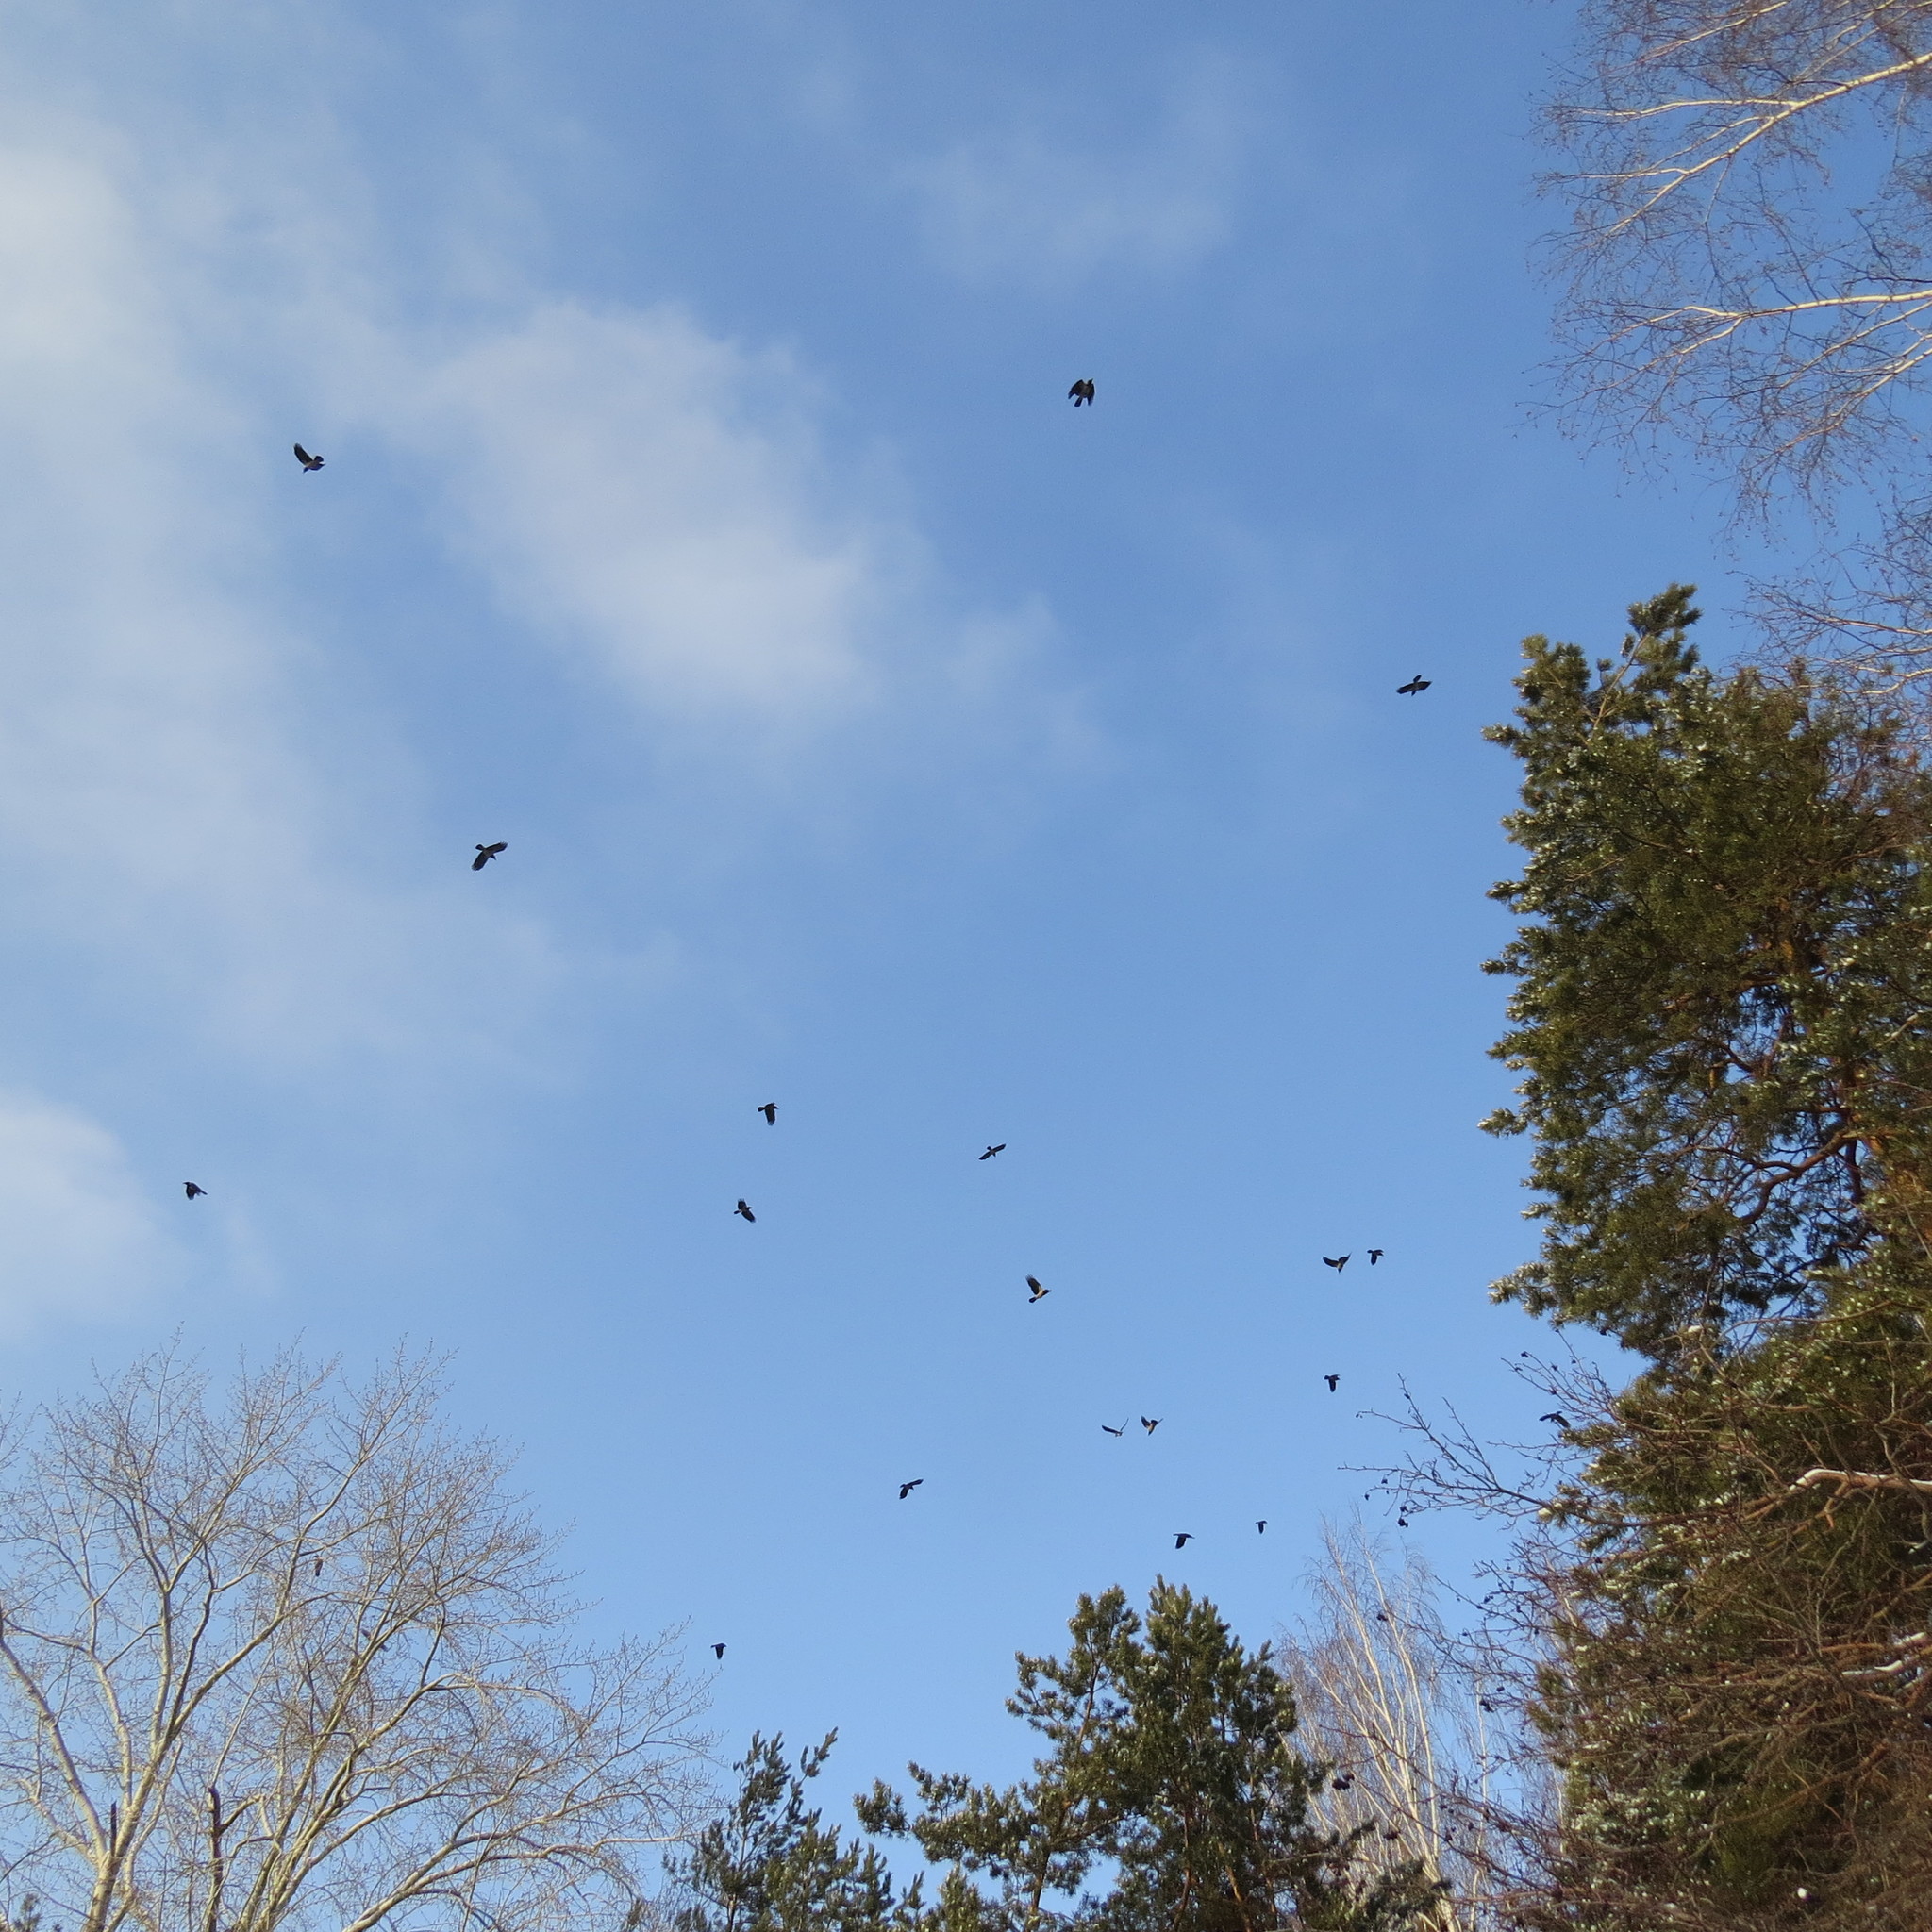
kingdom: Animalia
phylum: Chordata
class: Aves
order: Passeriformes
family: Corvidae
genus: Corvus
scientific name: Corvus cornix
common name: Hooded crow
